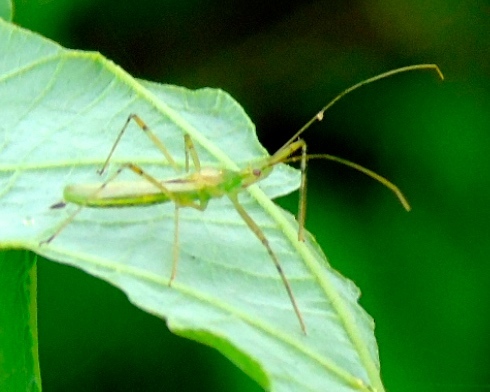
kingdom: Animalia
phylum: Arthropoda
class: Insecta
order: Hemiptera
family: Reduviidae
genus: Zelus
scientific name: Zelus
